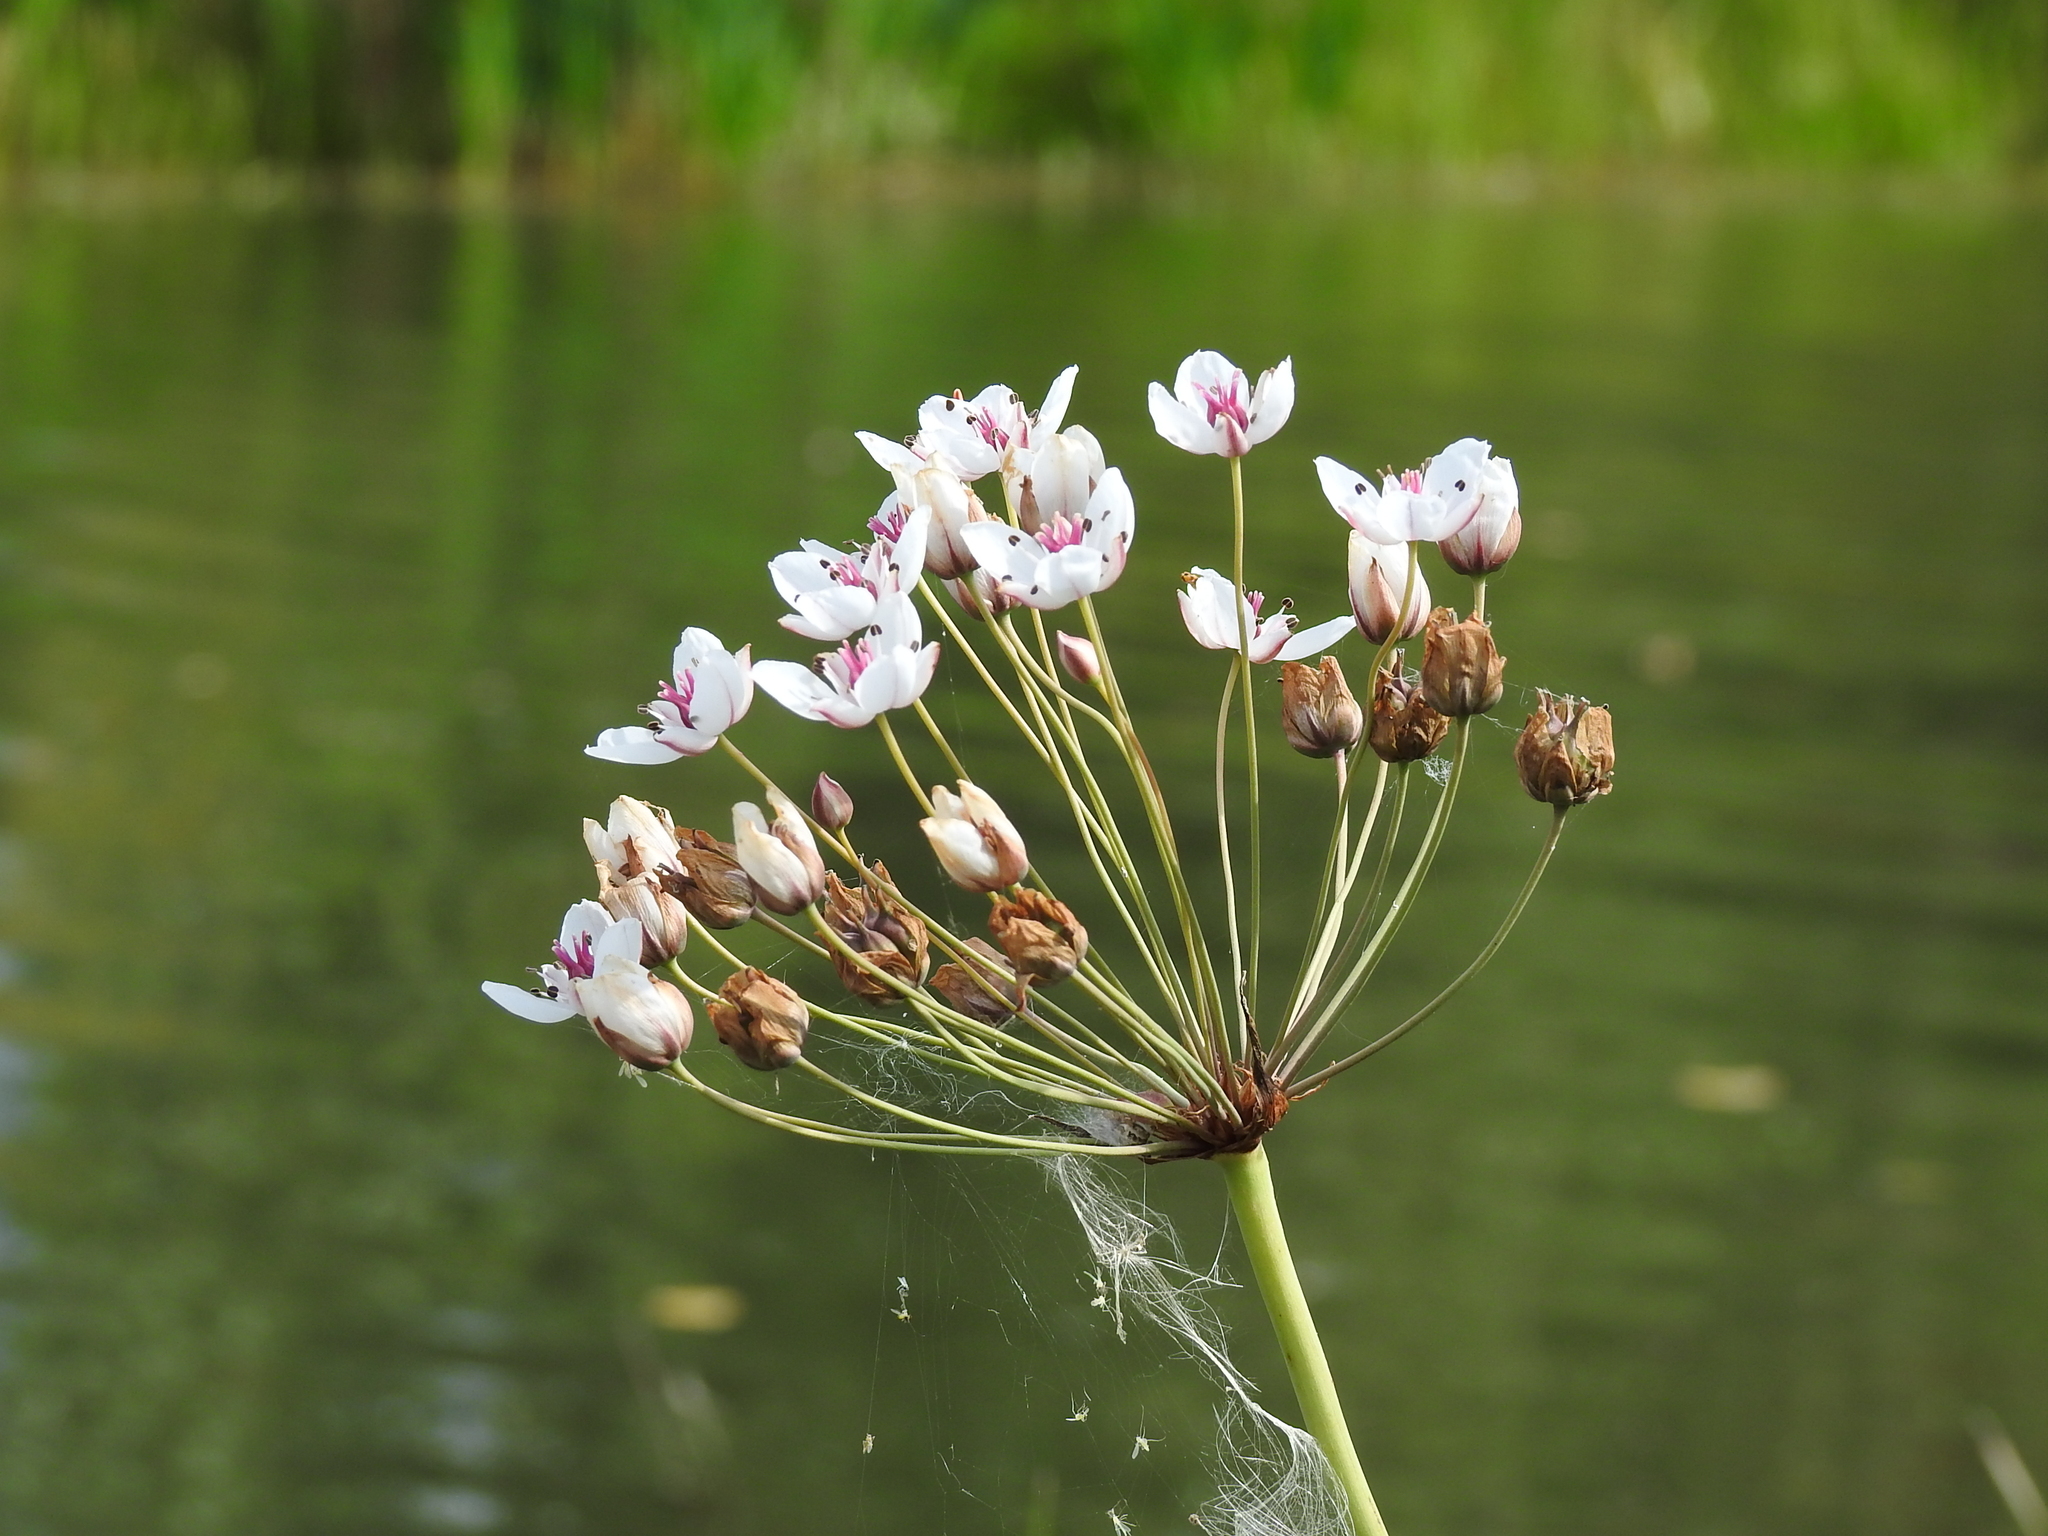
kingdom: Plantae
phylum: Tracheophyta
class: Liliopsida
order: Alismatales
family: Butomaceae
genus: Butomus
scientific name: Butomus umbellatus
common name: Flowering-rush
